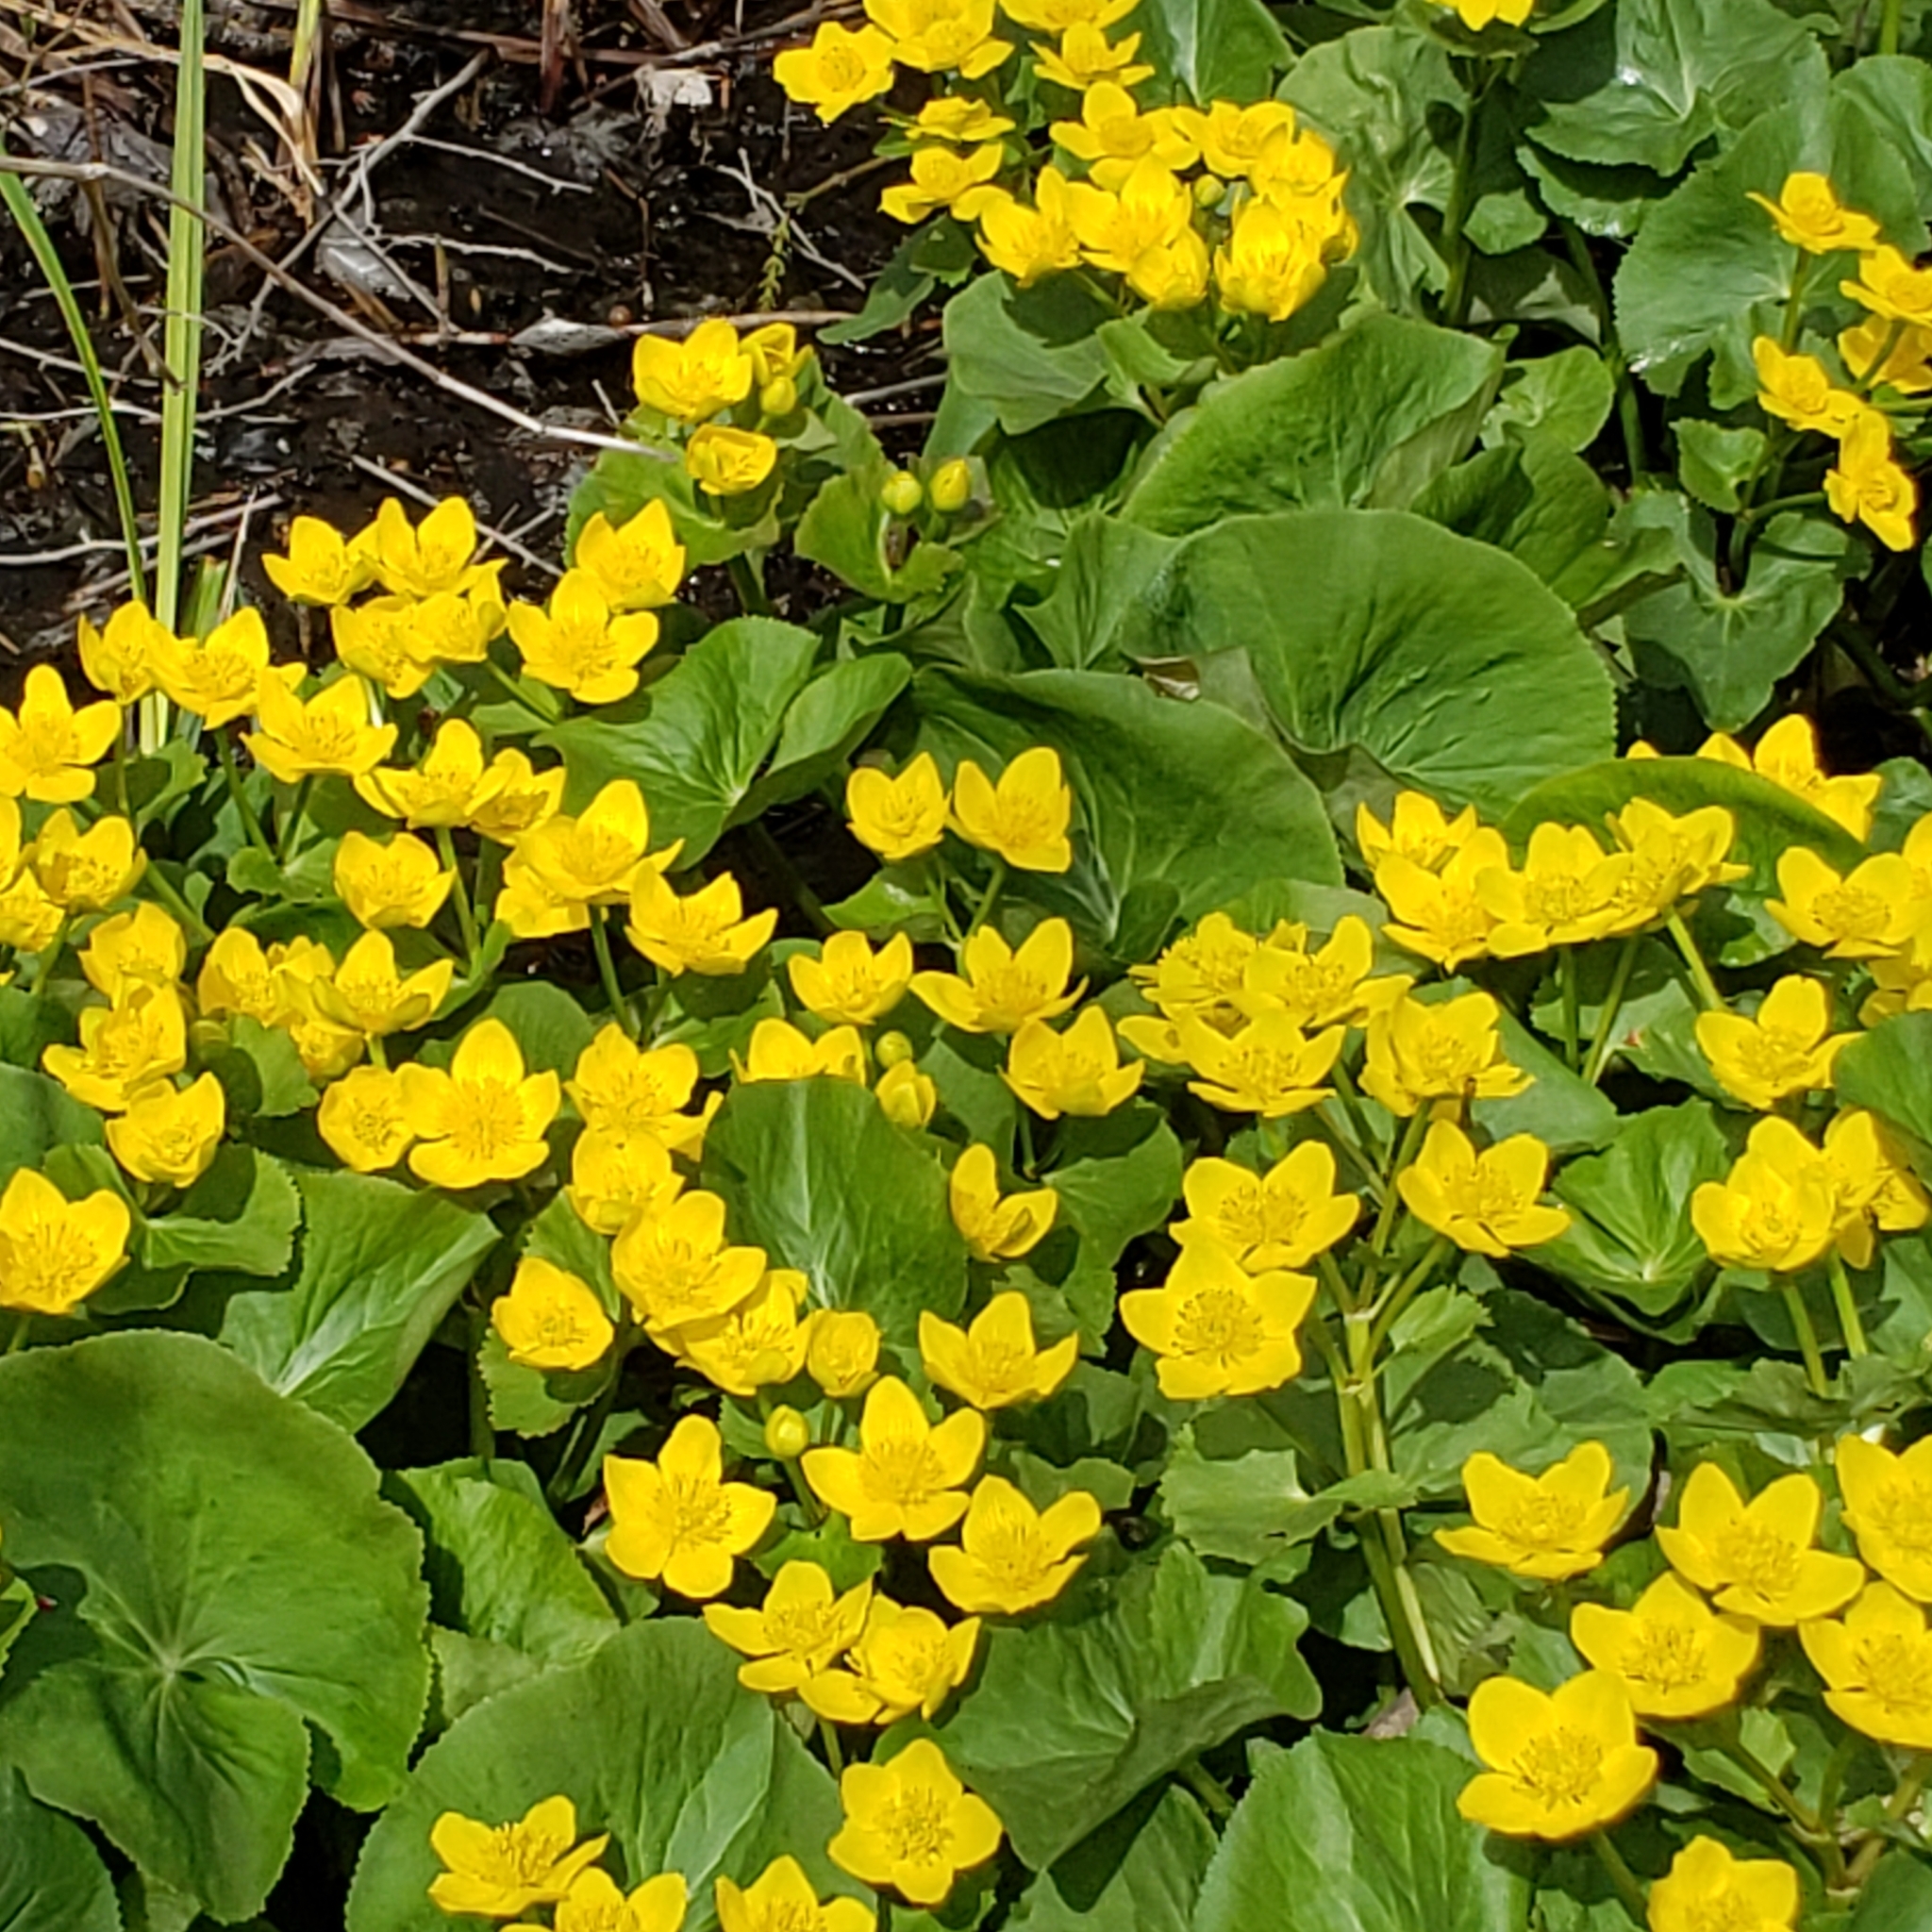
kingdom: Plantae
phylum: Tracheophyta
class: Magnoliopsida
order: Ranunculales
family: Ranunculaceae
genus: Caltha
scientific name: Caltha palustris
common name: Marsh marigold
